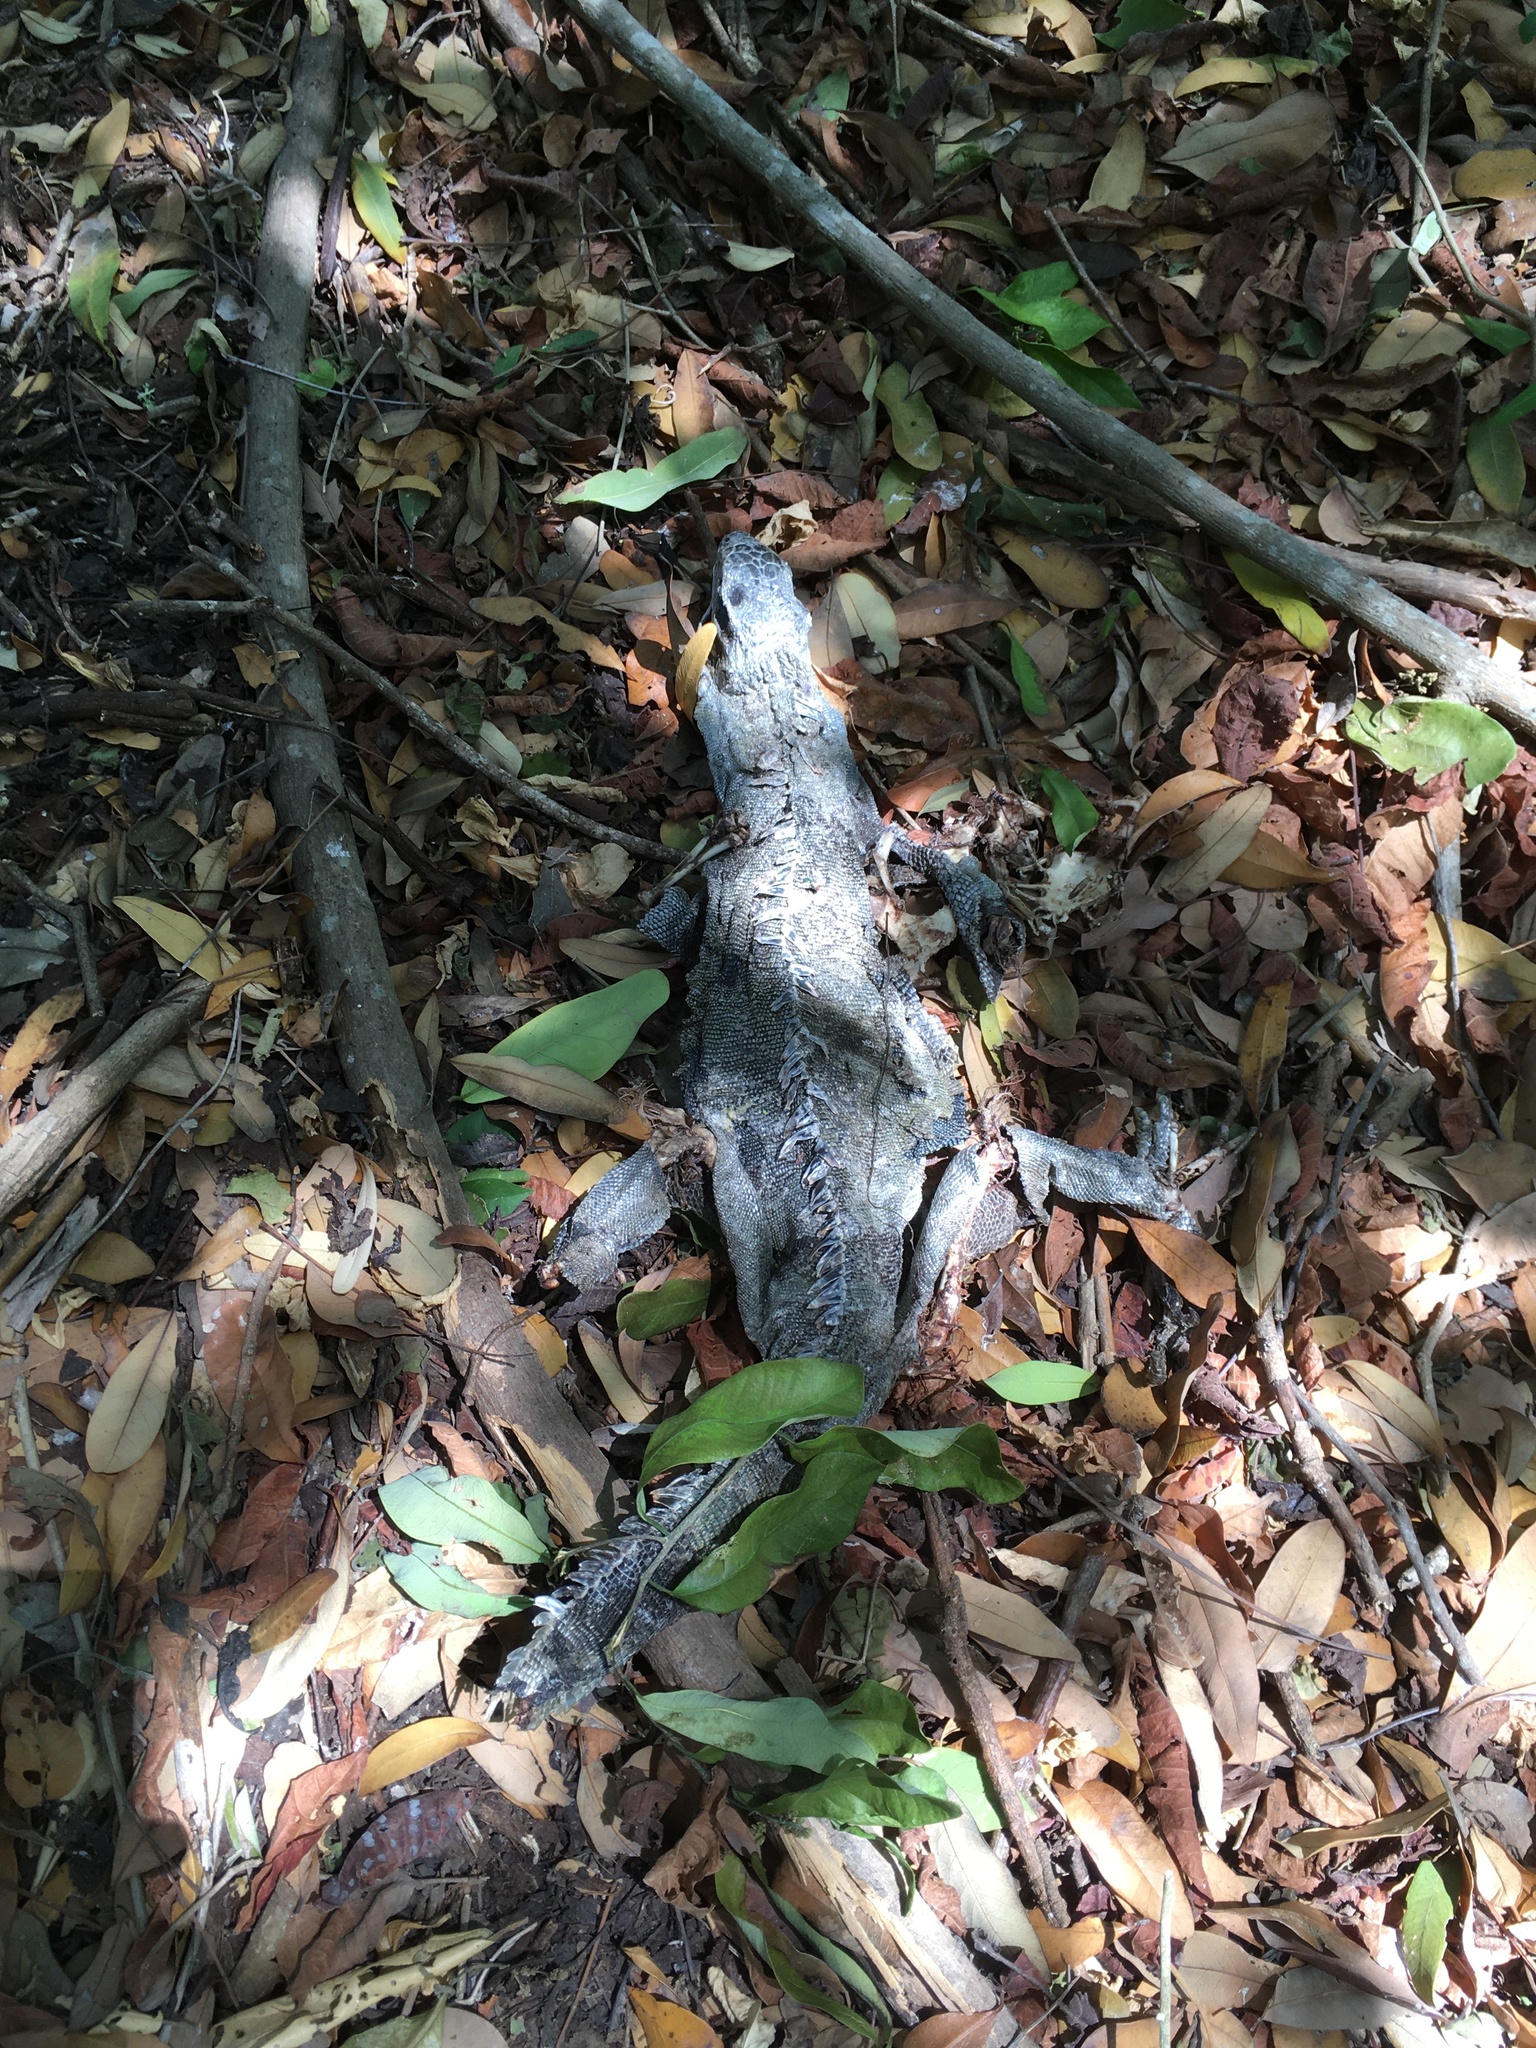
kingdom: Animalia
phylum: Chordata
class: Squamata
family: Iguanidae
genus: Iguana
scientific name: Iguana iguana
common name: Green iguana
